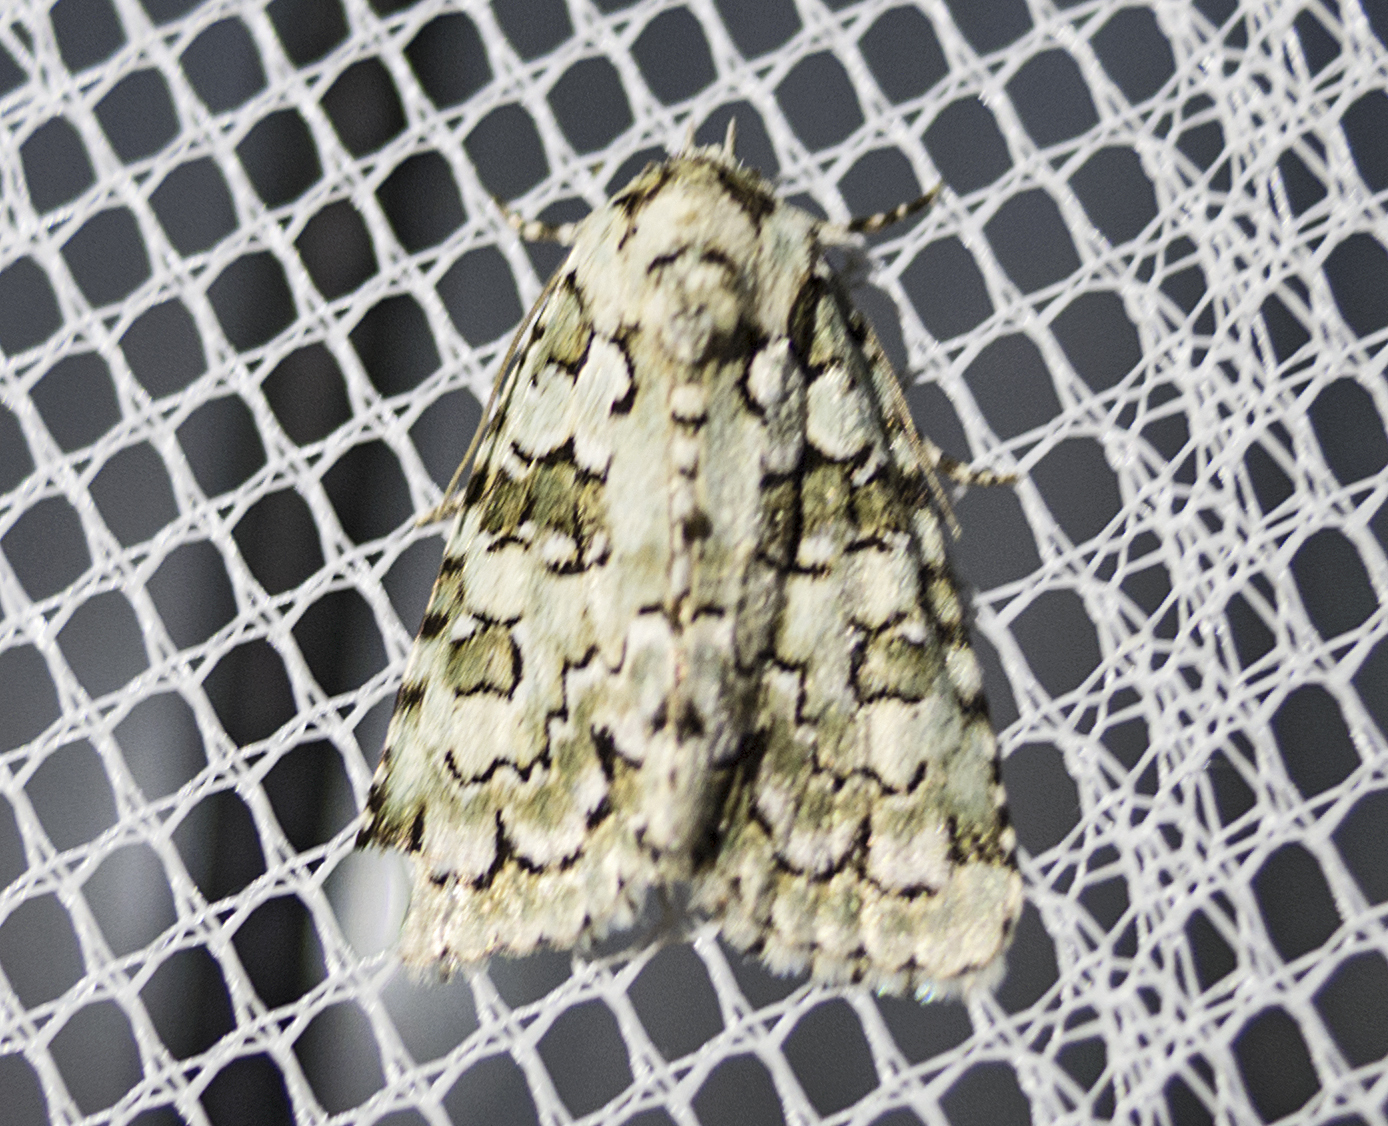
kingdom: Plantae
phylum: Chlorophyta
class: Ulvophyceae
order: Bryopsidales
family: Bryopsidaceae
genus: Bryopsis
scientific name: Bryopsis
